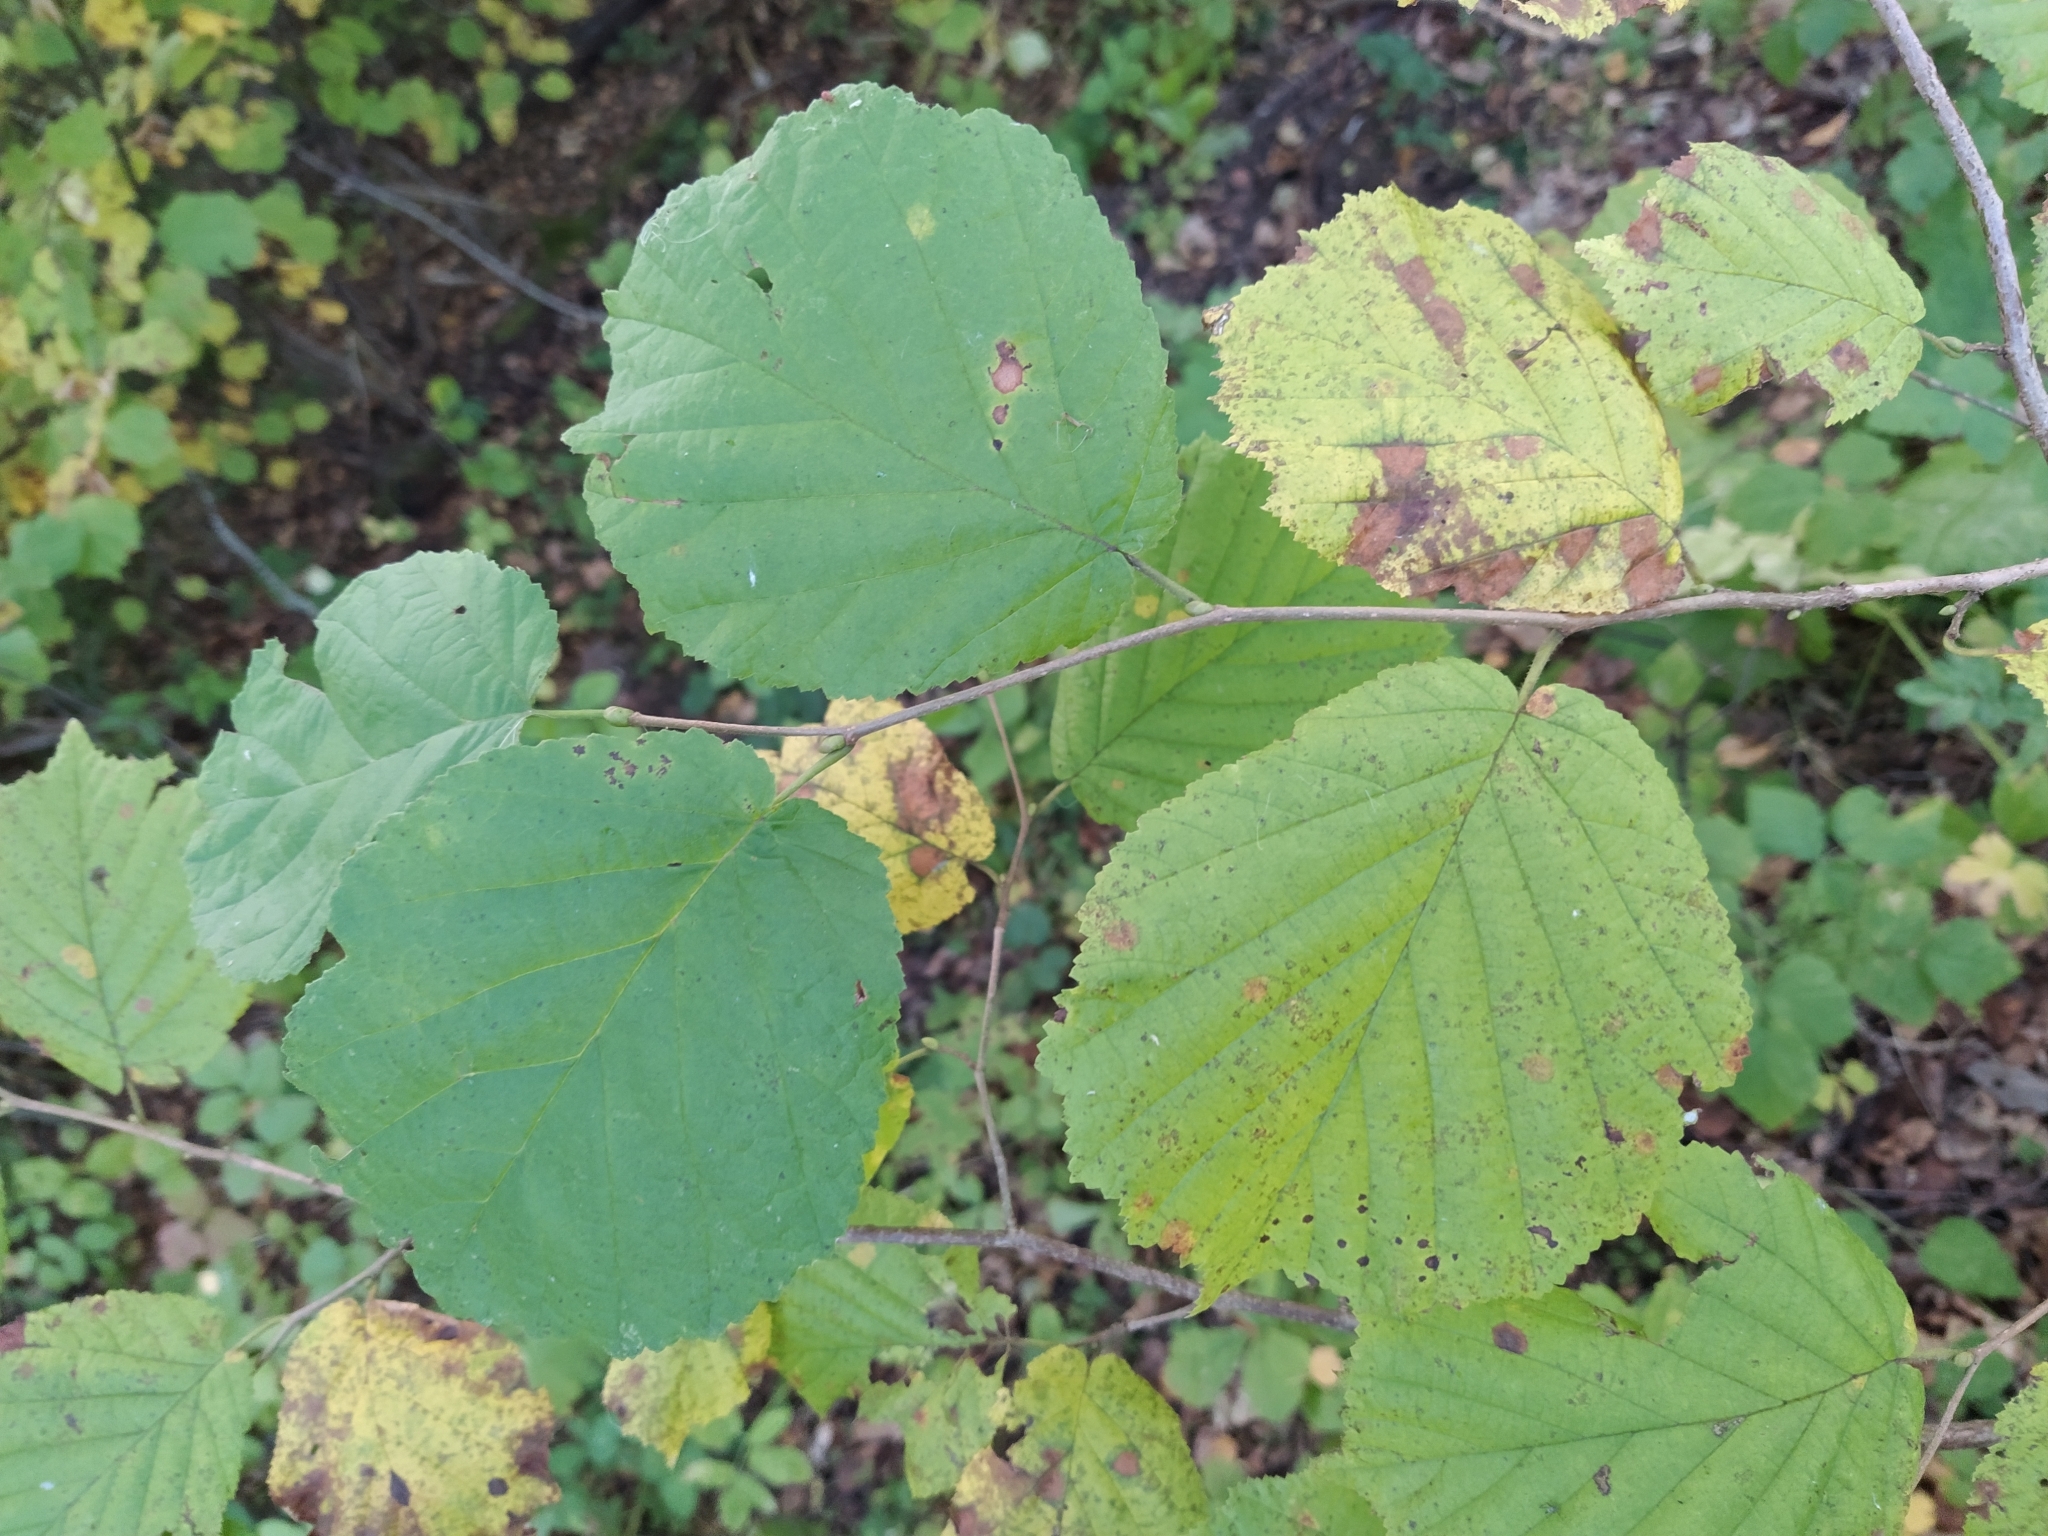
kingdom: Plantae
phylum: Tracheophyta
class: Magnoliopsida
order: Fagales
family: Betulaceae
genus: Corylus
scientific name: Corylus avellana
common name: European hazel
